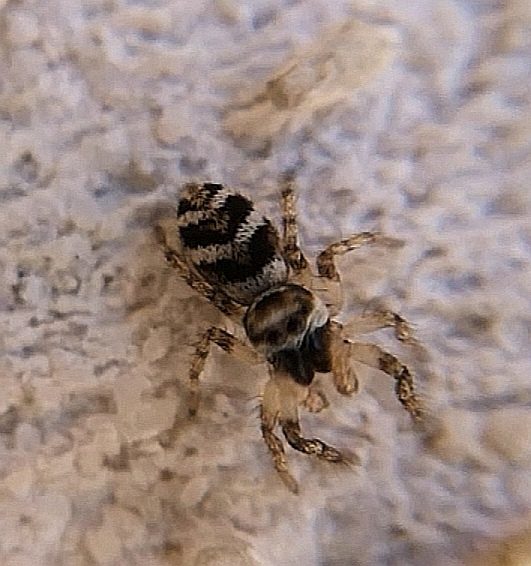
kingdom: Animalia
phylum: Arthropoda
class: Arachnida
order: Araneae
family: Salticidae
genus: Salticus
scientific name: Salticus scenicus
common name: Zebra jumper
